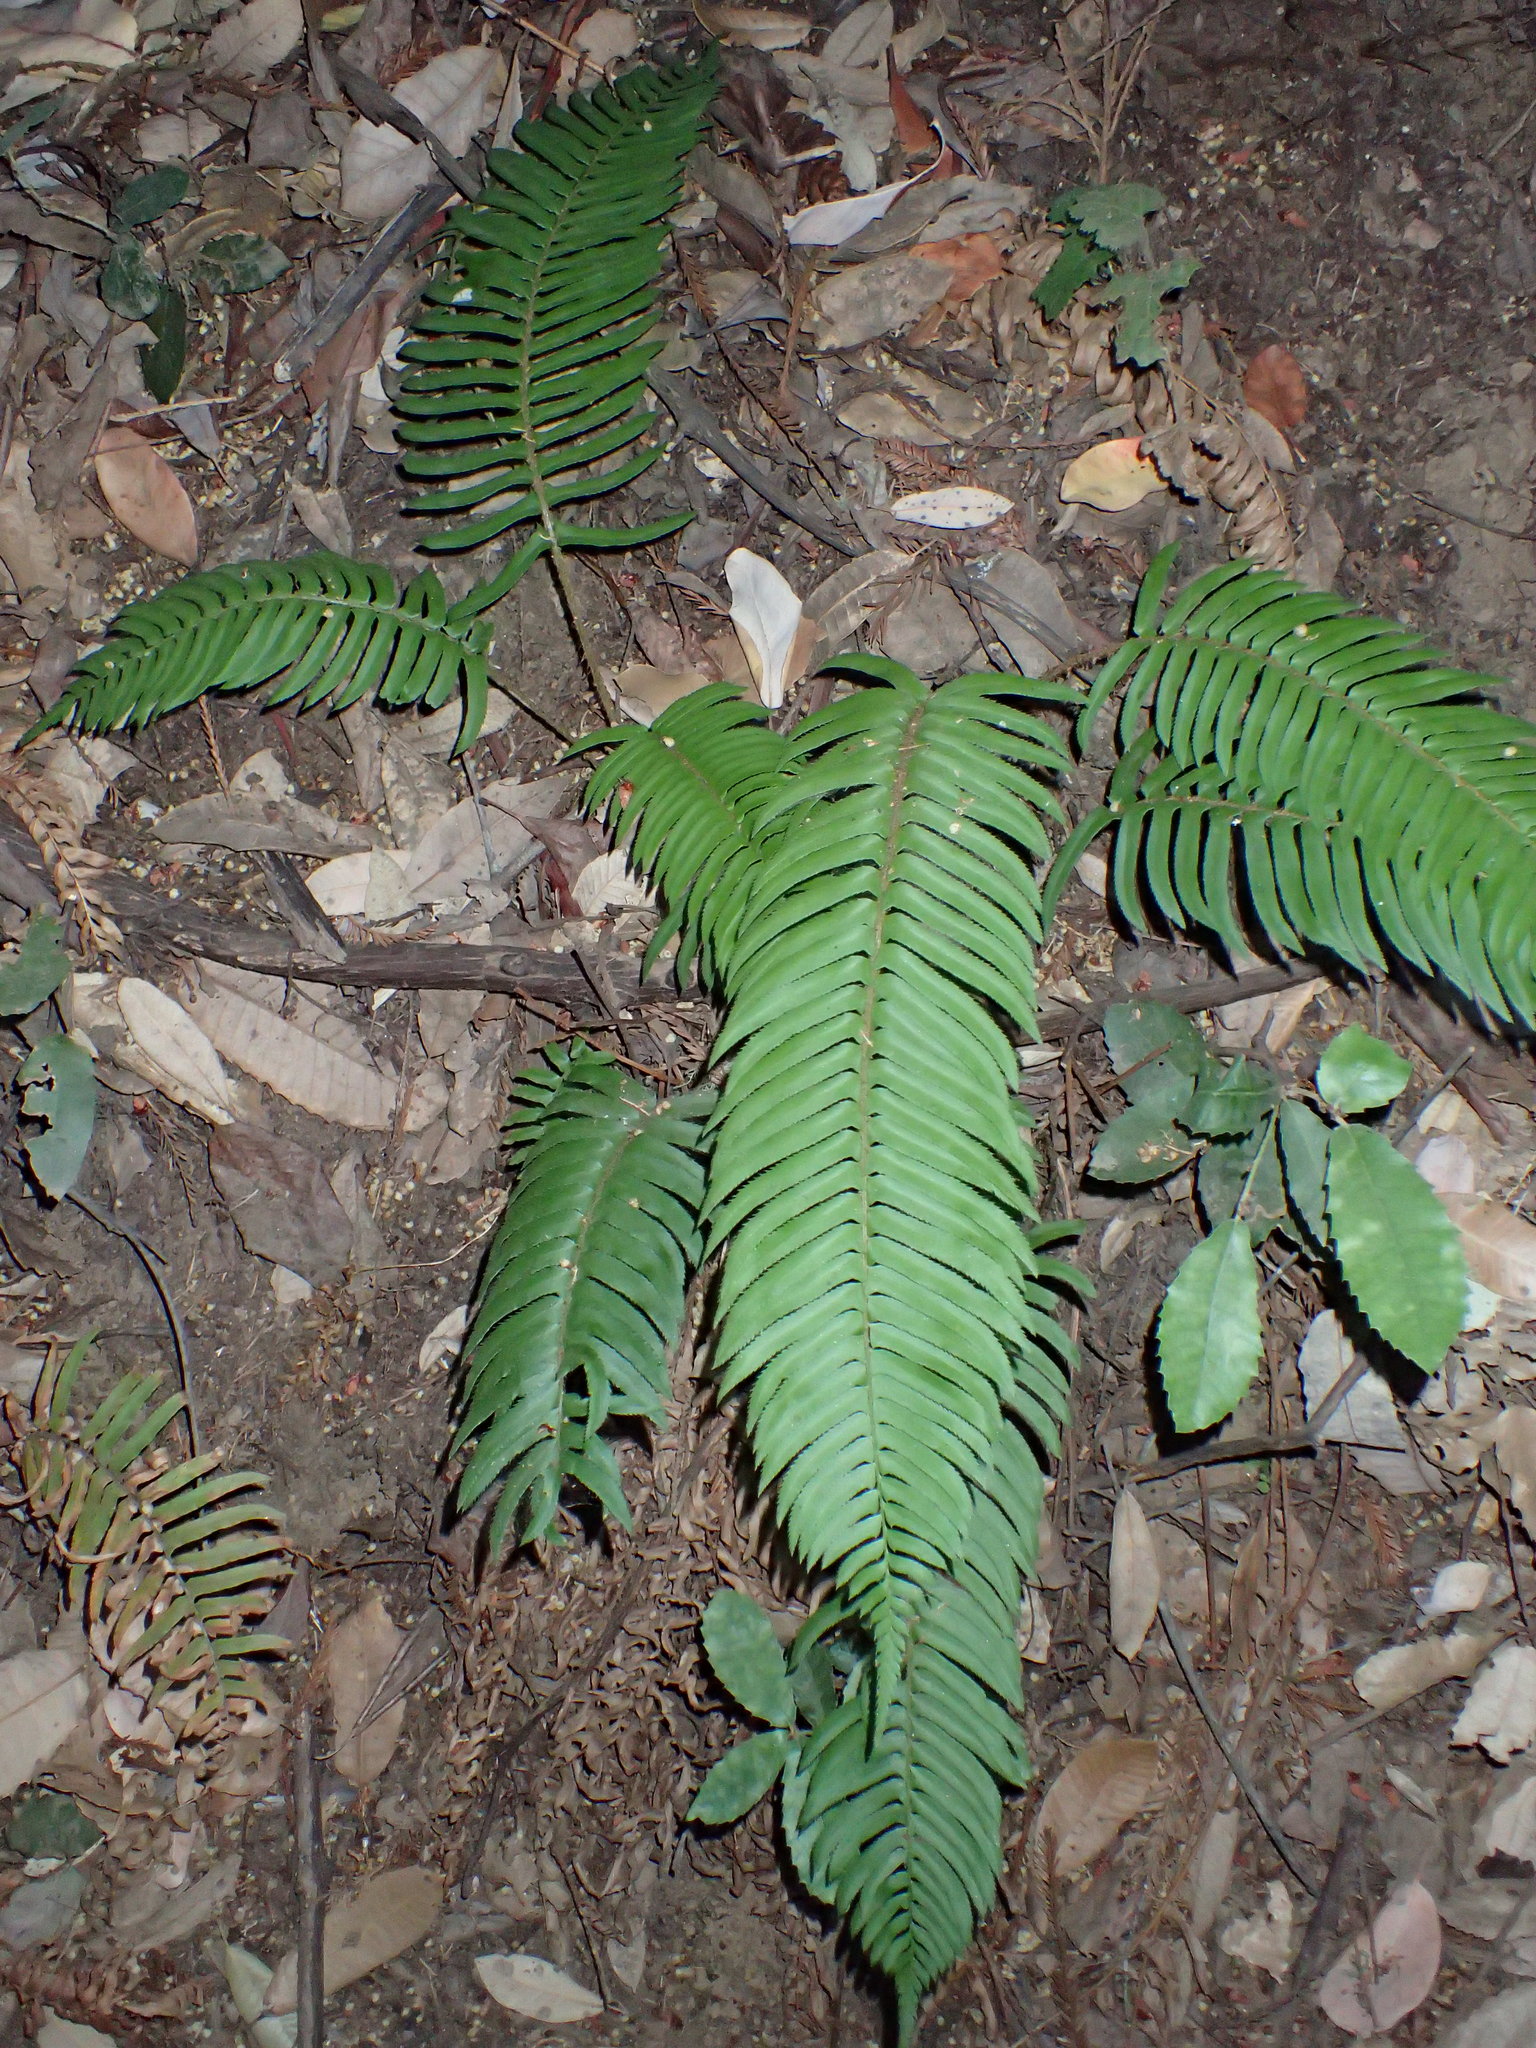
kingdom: Plantae
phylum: Tracheophyta
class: Polypodiopsida
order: Polypodiales
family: Dryopteridaceae
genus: Polystichum
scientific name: Polystichum munitum
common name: Western sword-fern
